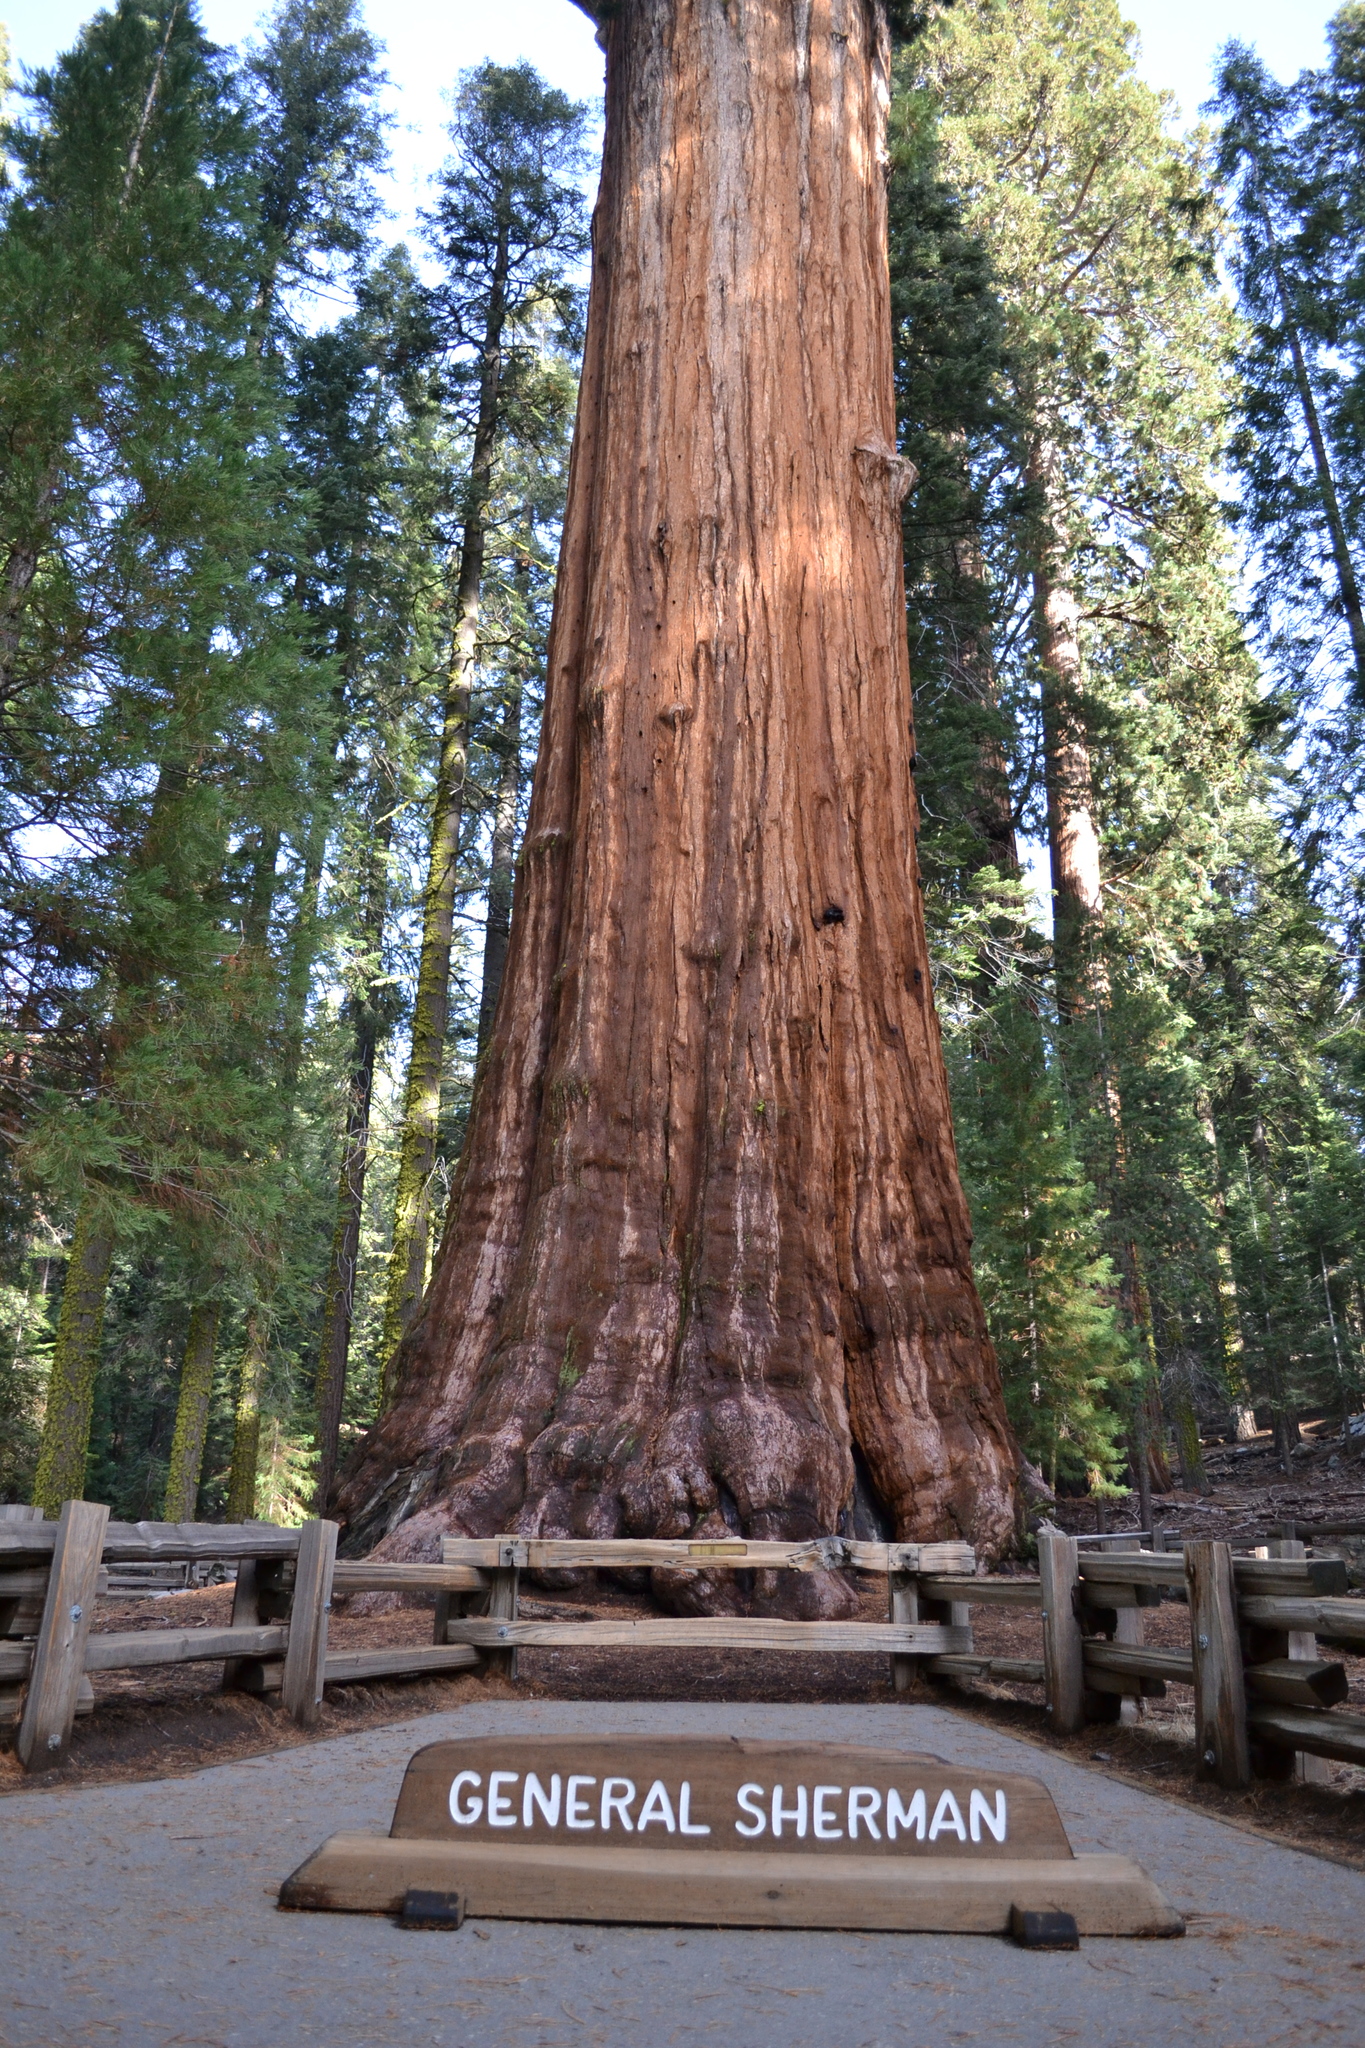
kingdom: Plantae
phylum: Tracheophyta
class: Pinopsida
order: Pinales
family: Cupressaceae
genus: Sequoiadendron
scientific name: Sequoiadendron giganteum
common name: Wellingtonia
